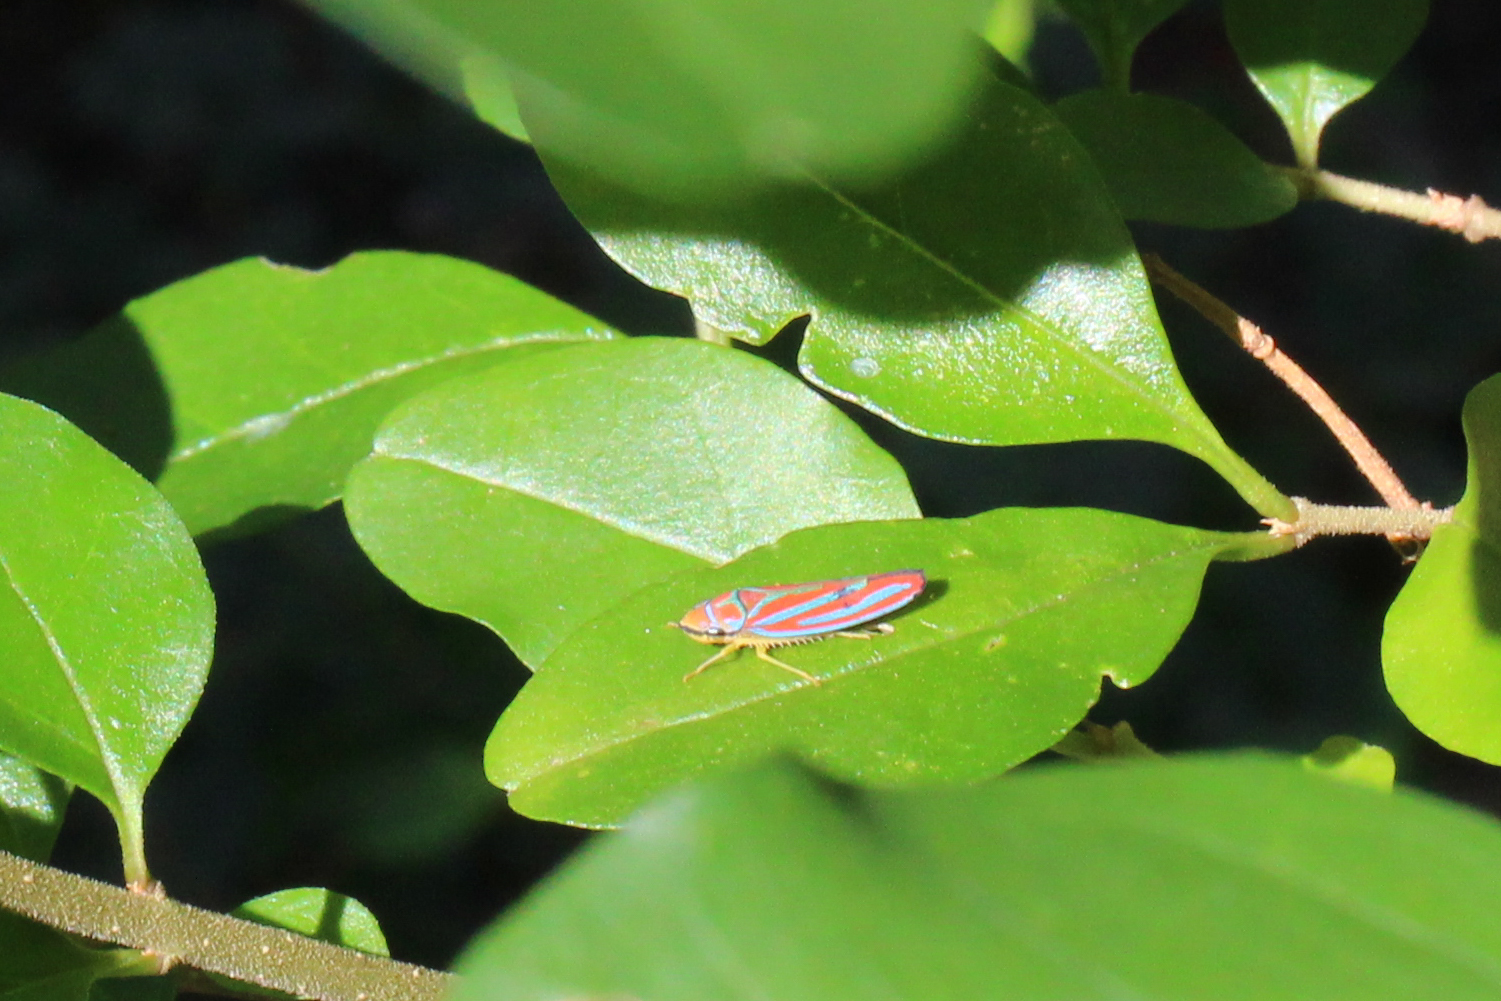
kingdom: Animalia
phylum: Arthropoda
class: Insecta
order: Hemiptera
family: Cicadellidae
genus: Graphocephala
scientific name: Graphocephala coccinea
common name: Candy-striped leafhopper
